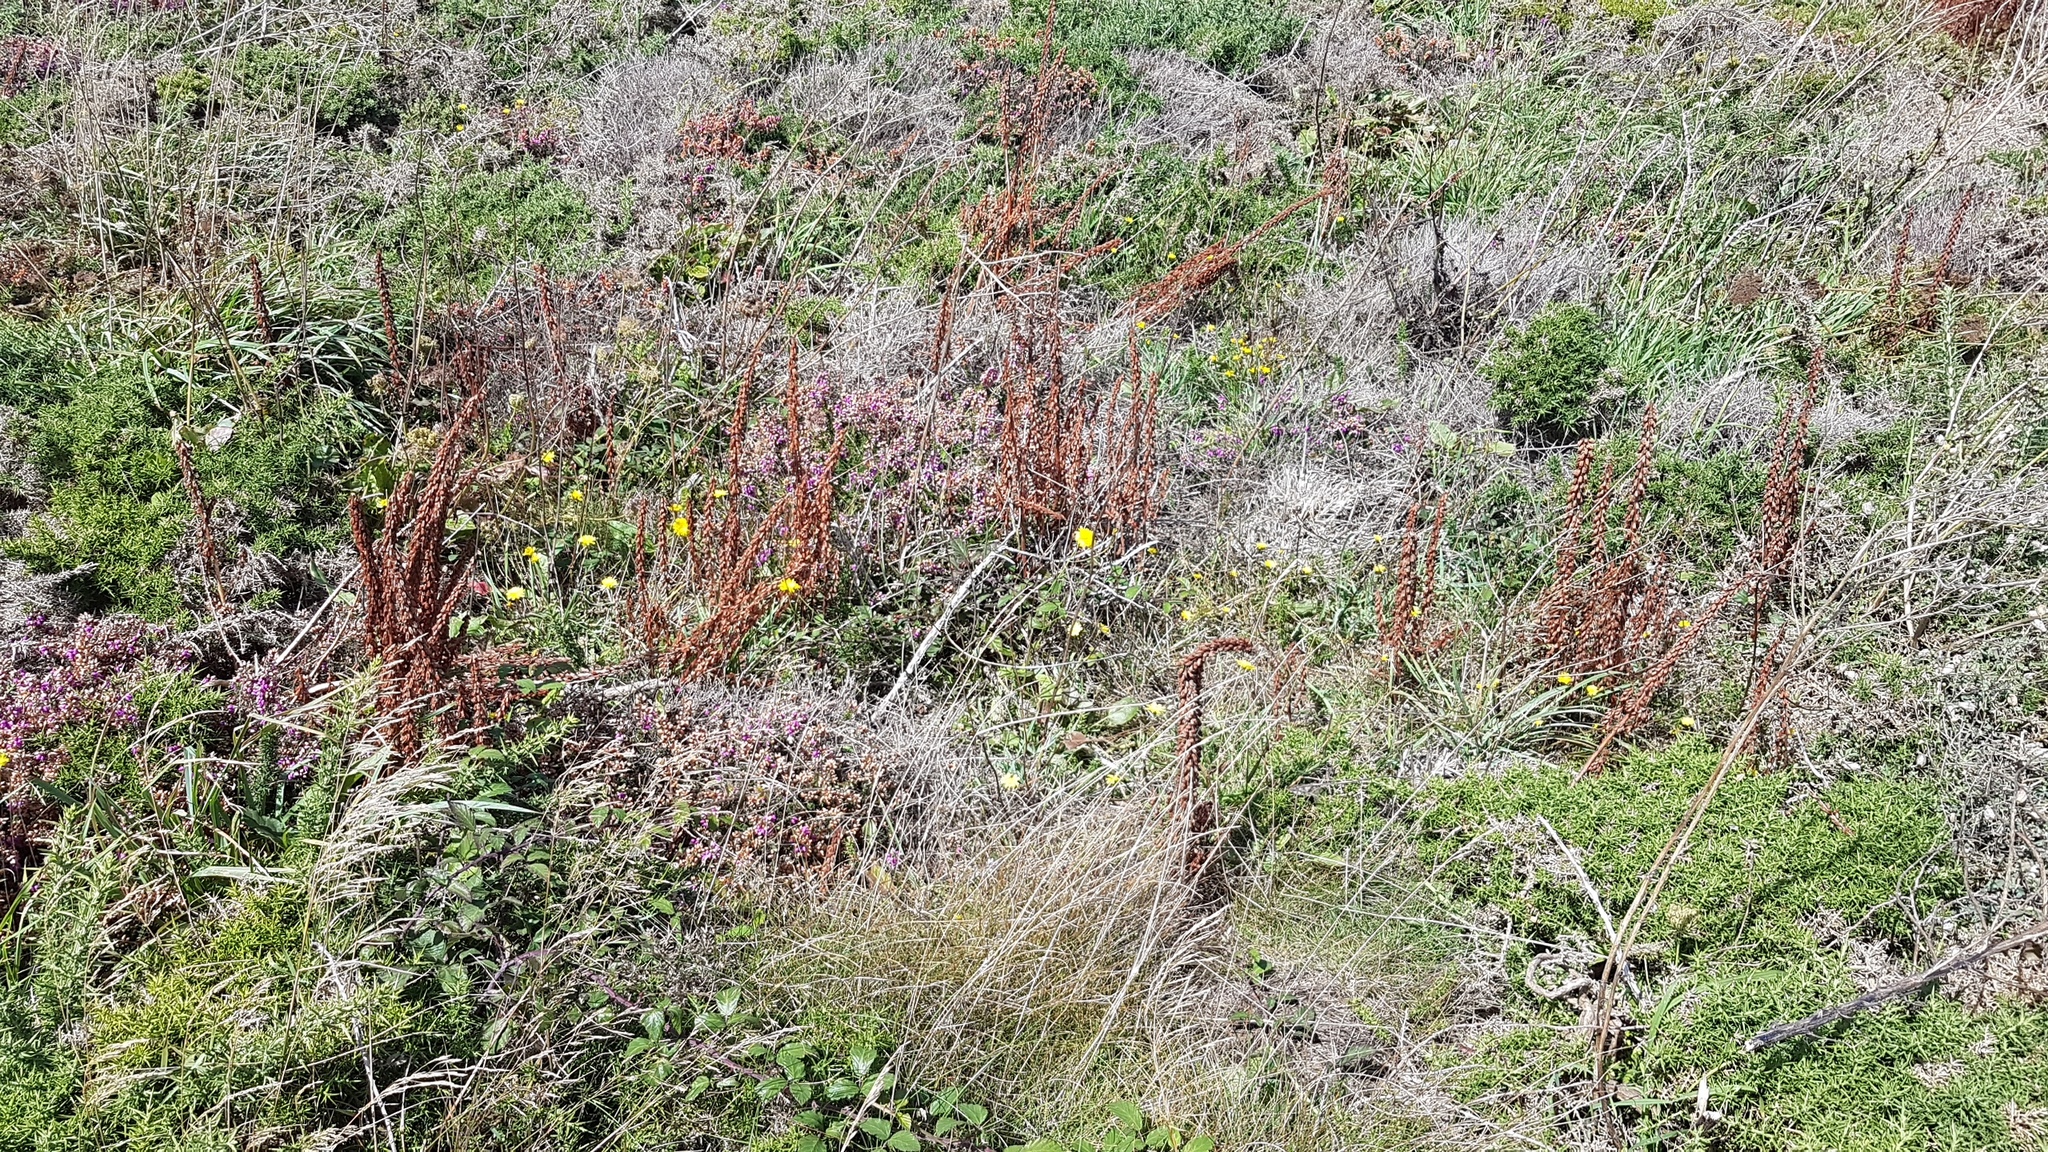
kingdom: Plantae
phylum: Tracheophyta
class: Magnoliopsida
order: Saxifragales
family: Crassulaceae
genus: Umbilicus
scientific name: Umbilicus rupestris
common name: Navelwort
